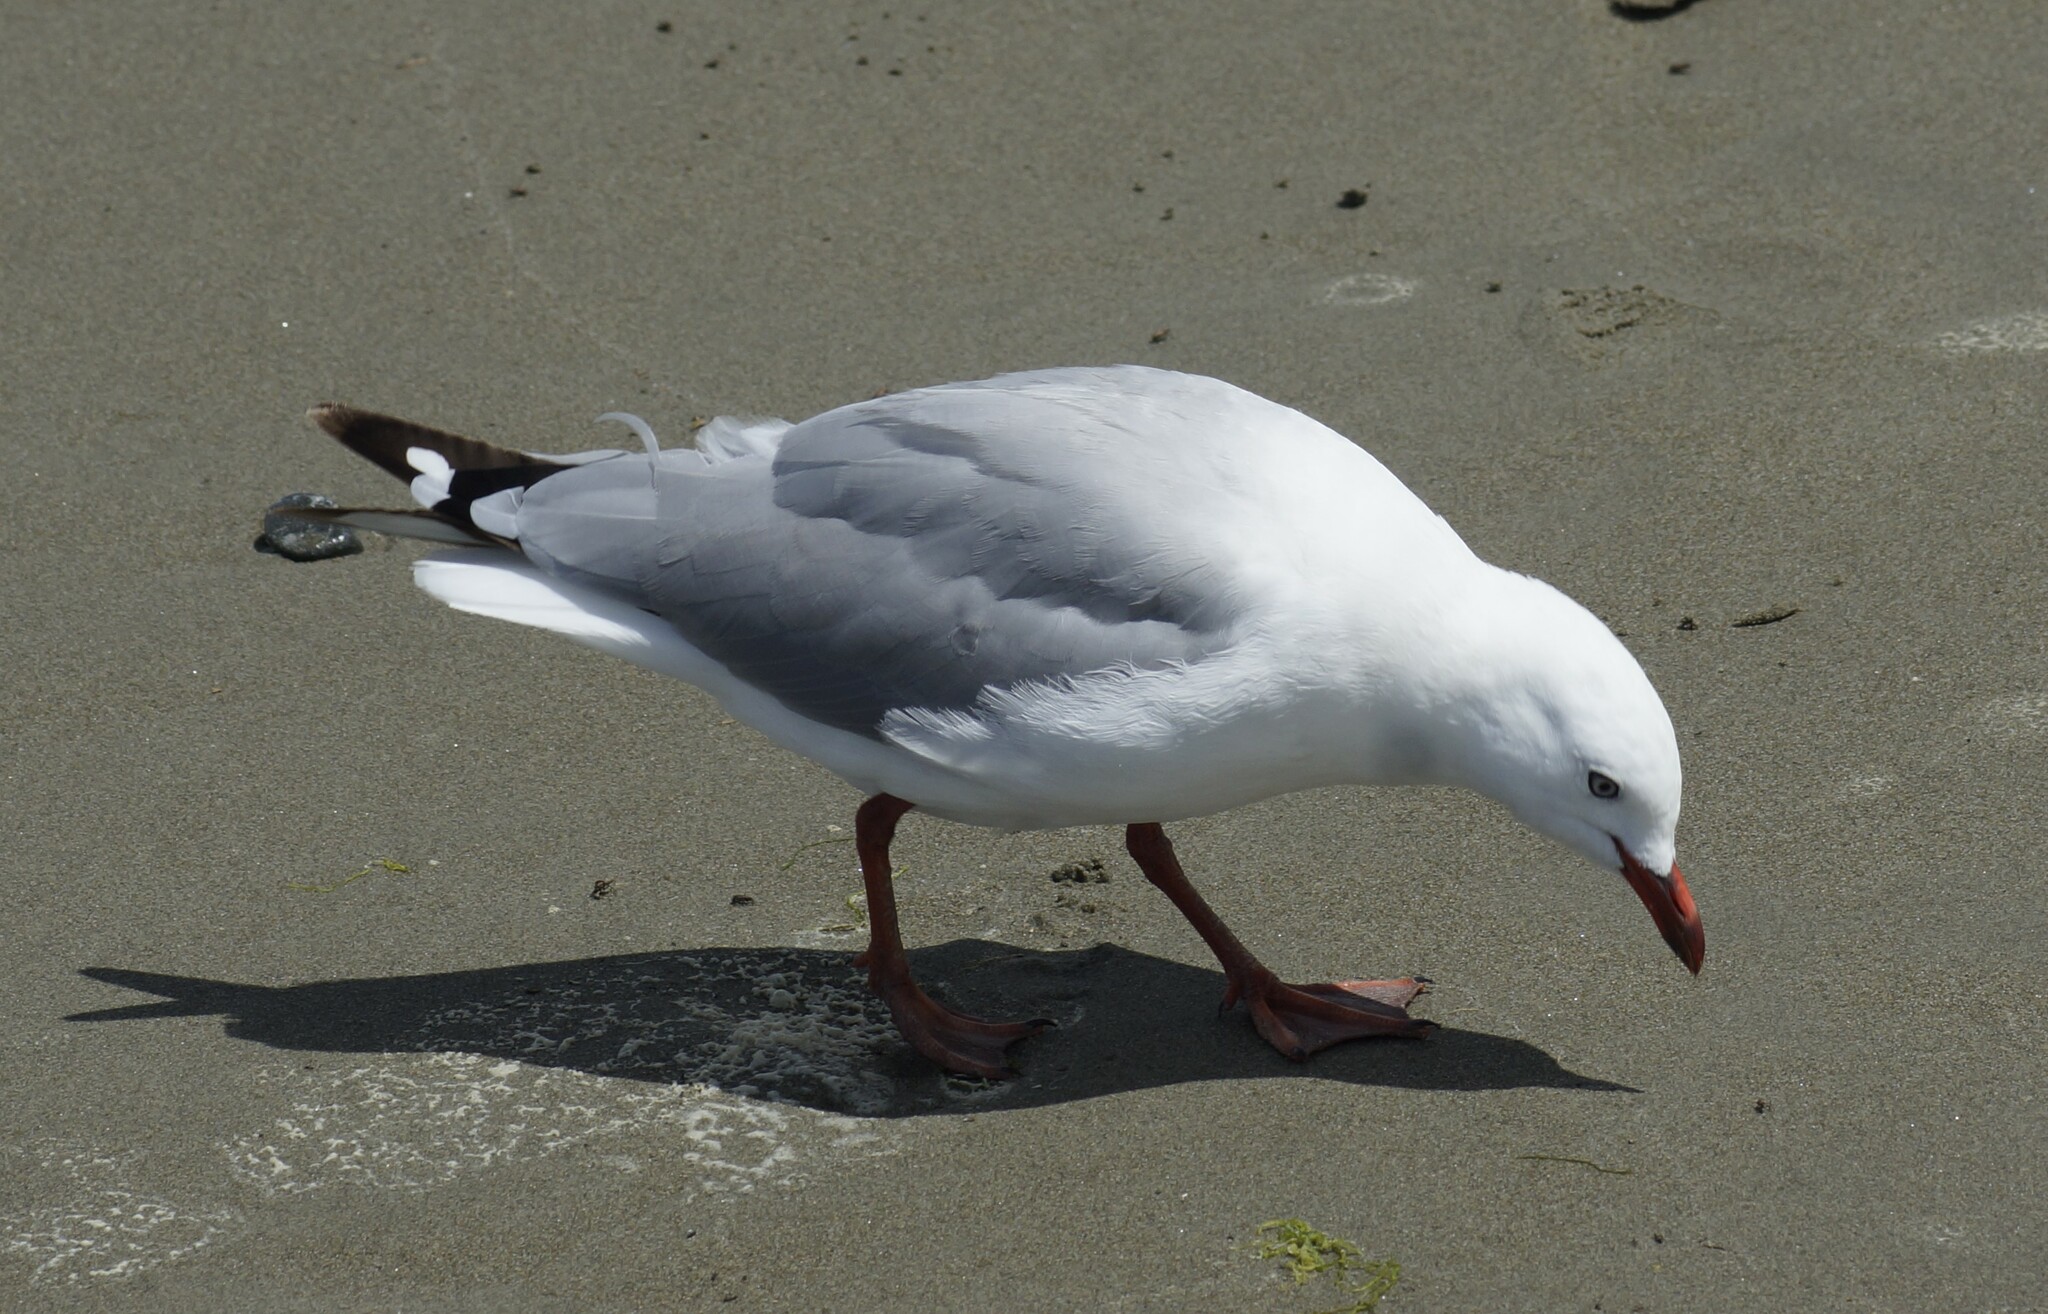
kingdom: Animalia
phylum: Chordata
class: Aves
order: Charadriiformes
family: Laridae
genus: Chroicocephalus
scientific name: Chroicocephalus novaehollandiae
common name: Silver gull
